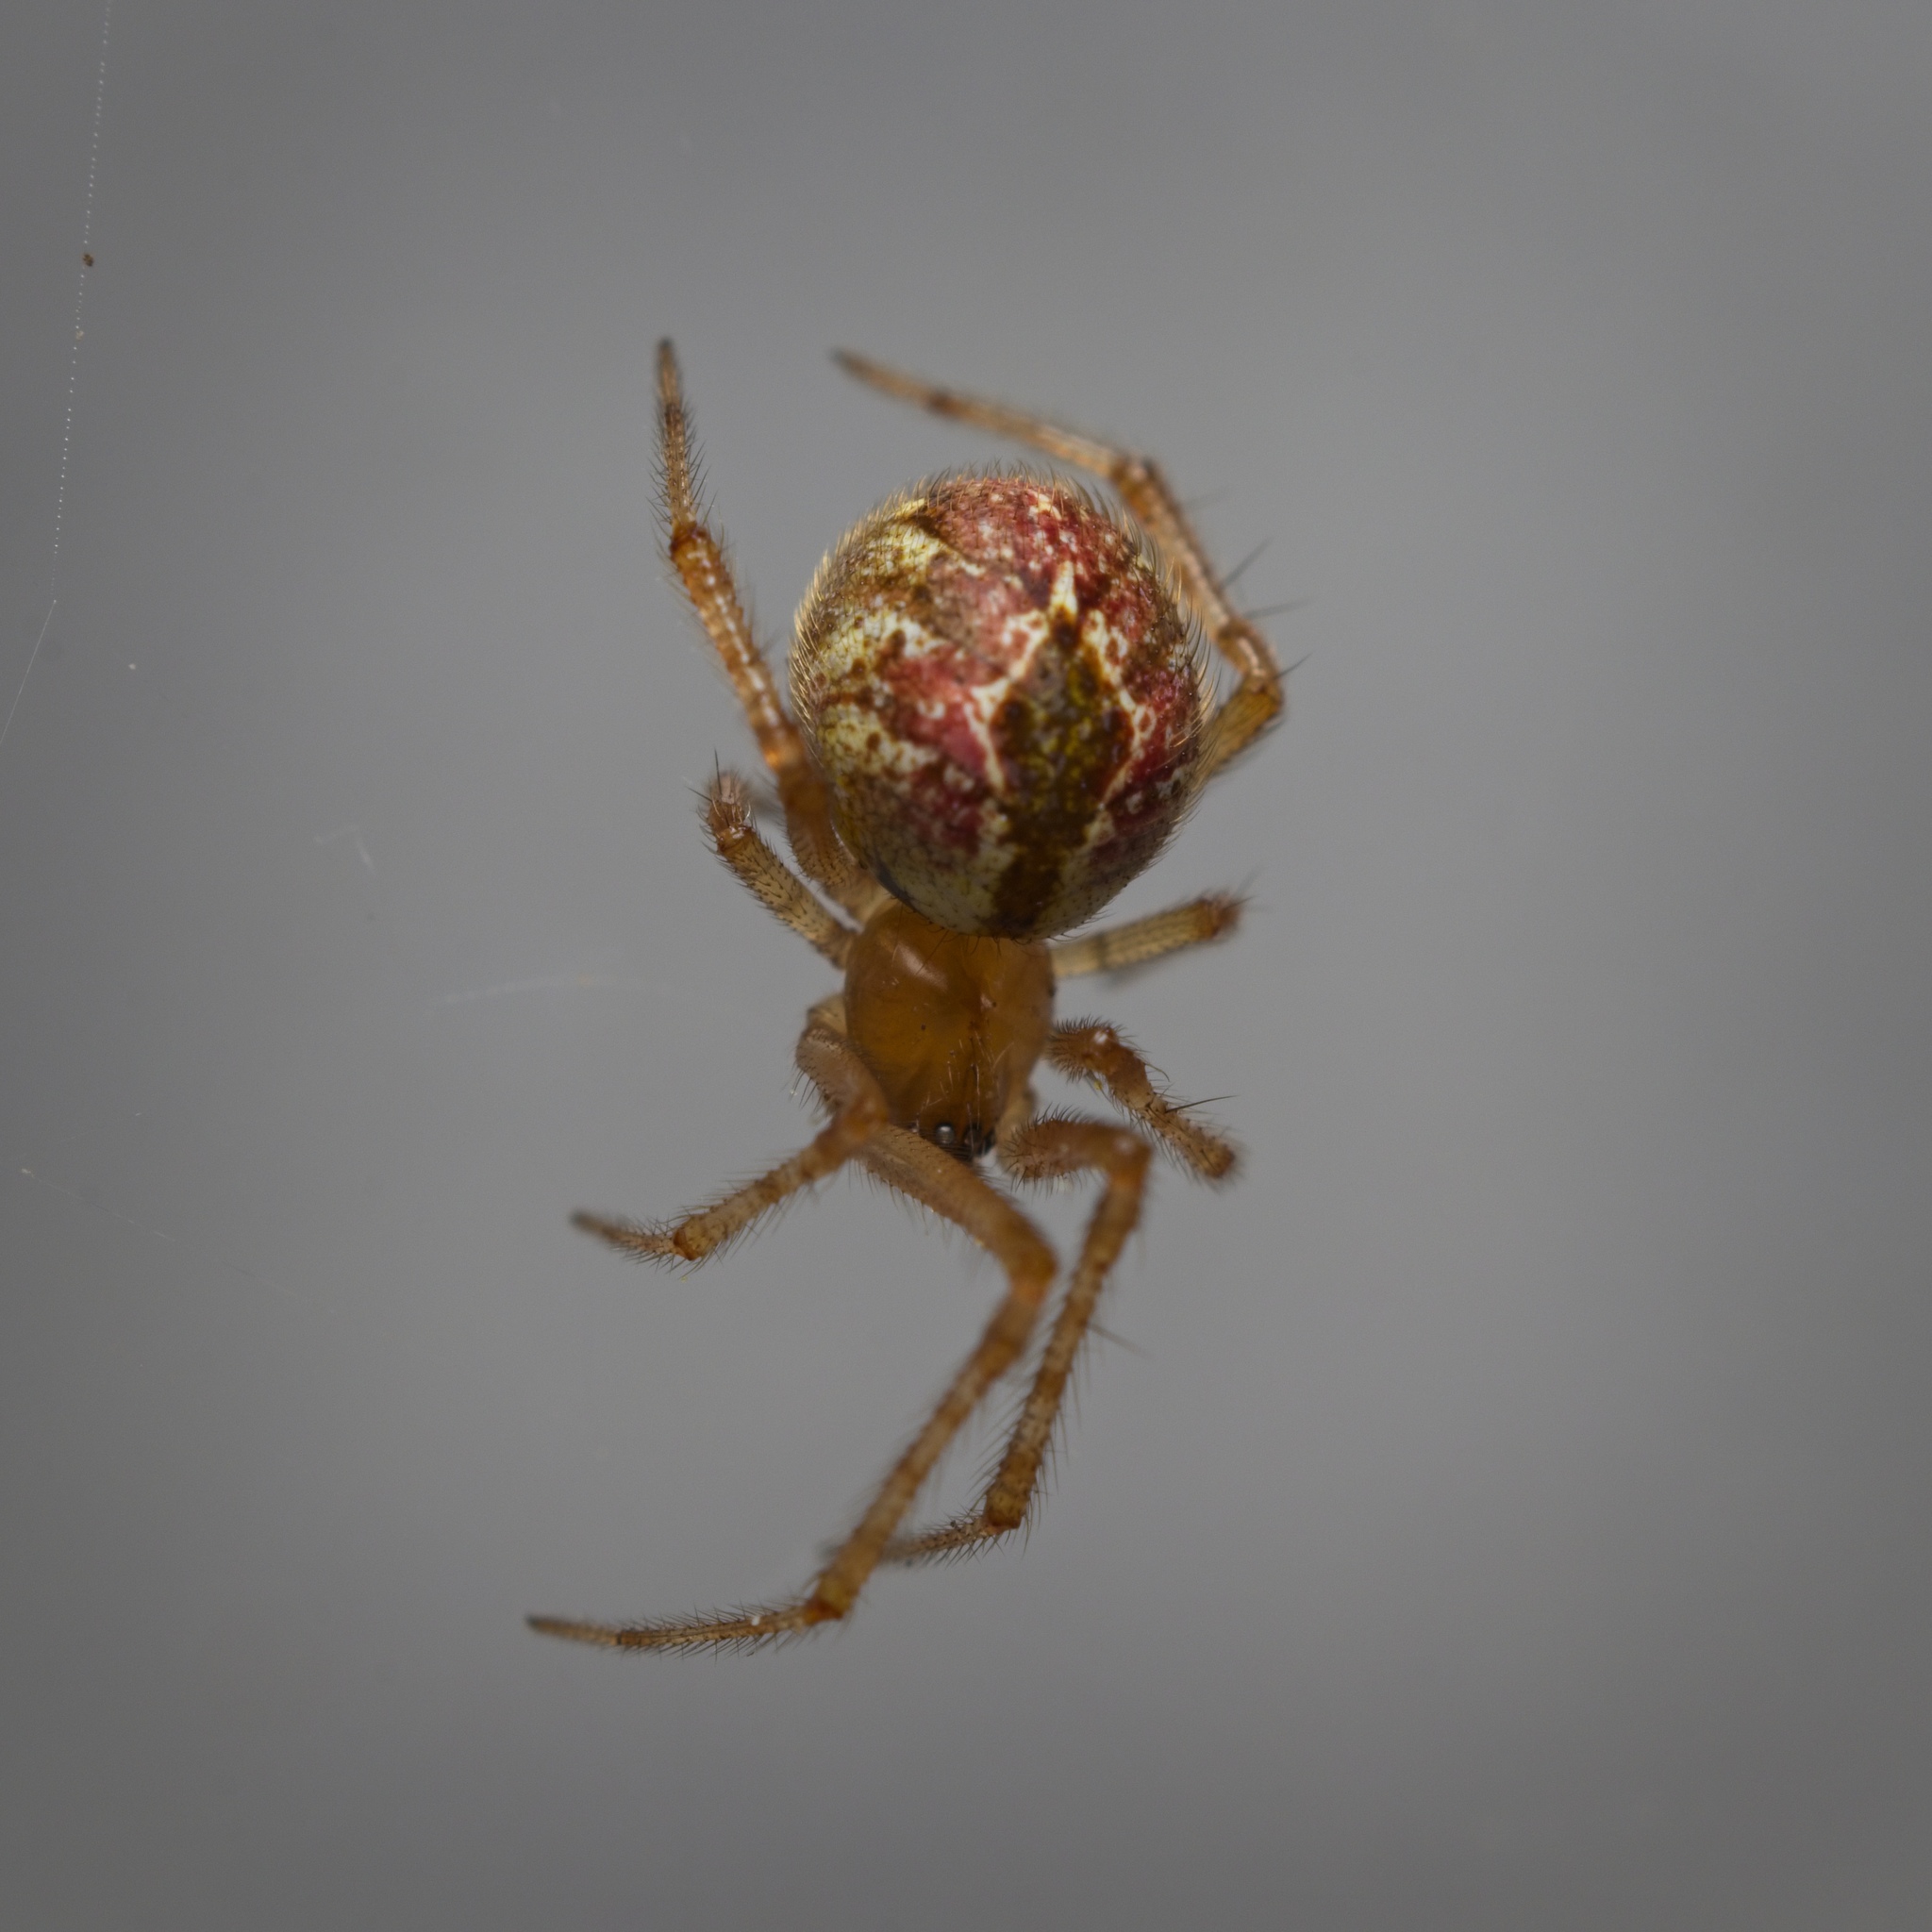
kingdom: Animalia
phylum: Arthropoda
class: Arachnida
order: Araneae
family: Theridiidae
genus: Cryptachaea
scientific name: Cryptachaea veruculata
